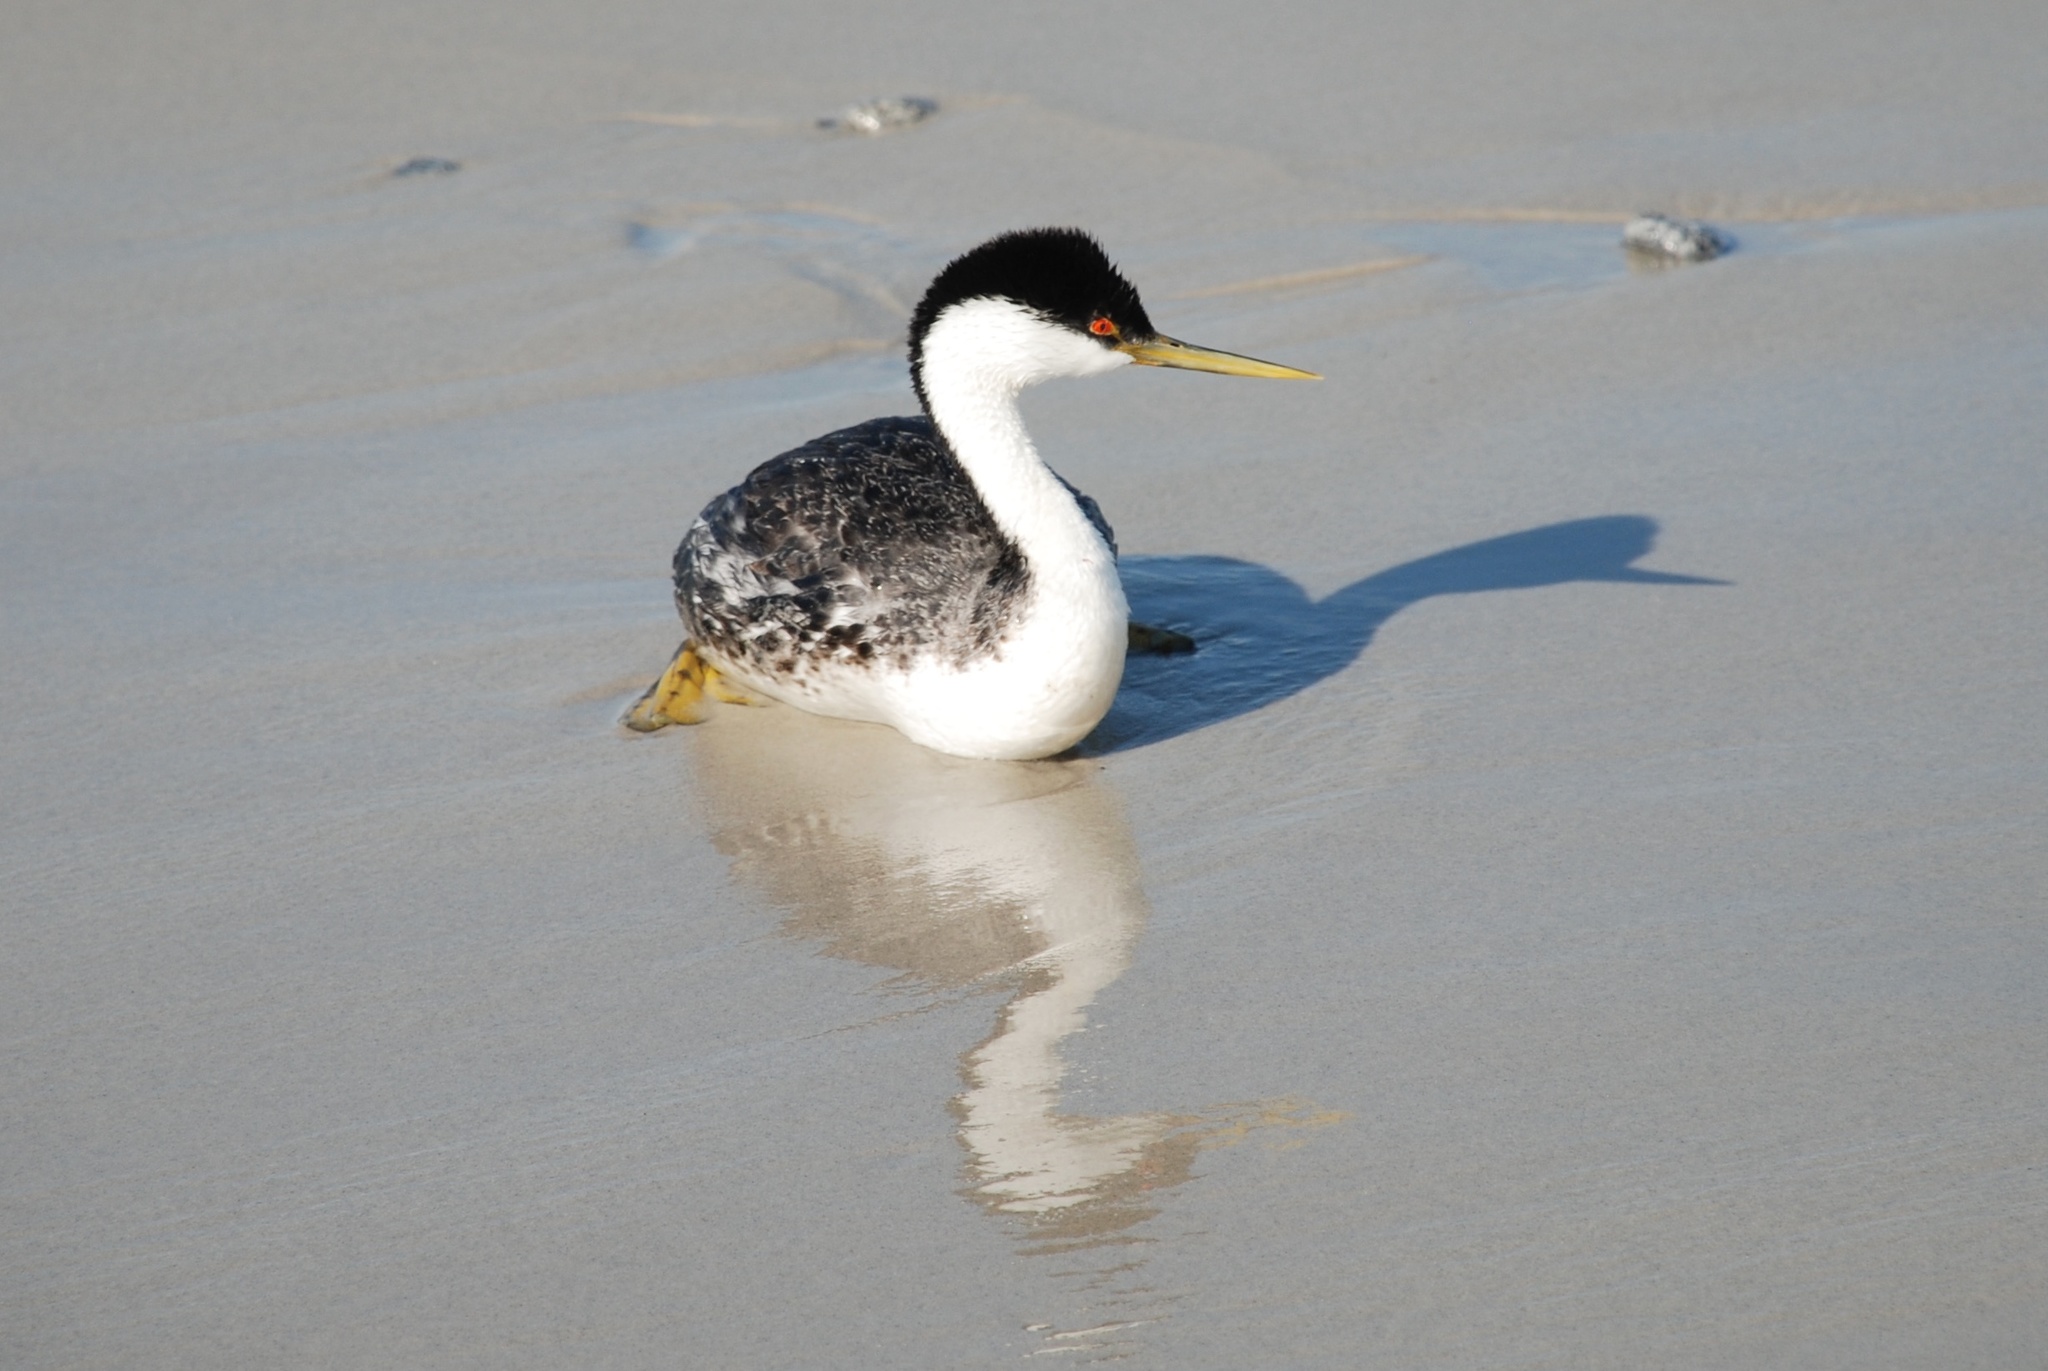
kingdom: Animalia
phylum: Chordata
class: Aves
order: Podicipediformes
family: Podicipedidae
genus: Aechmophorus
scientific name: Aechmophorus occidentalis
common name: Western grebe
